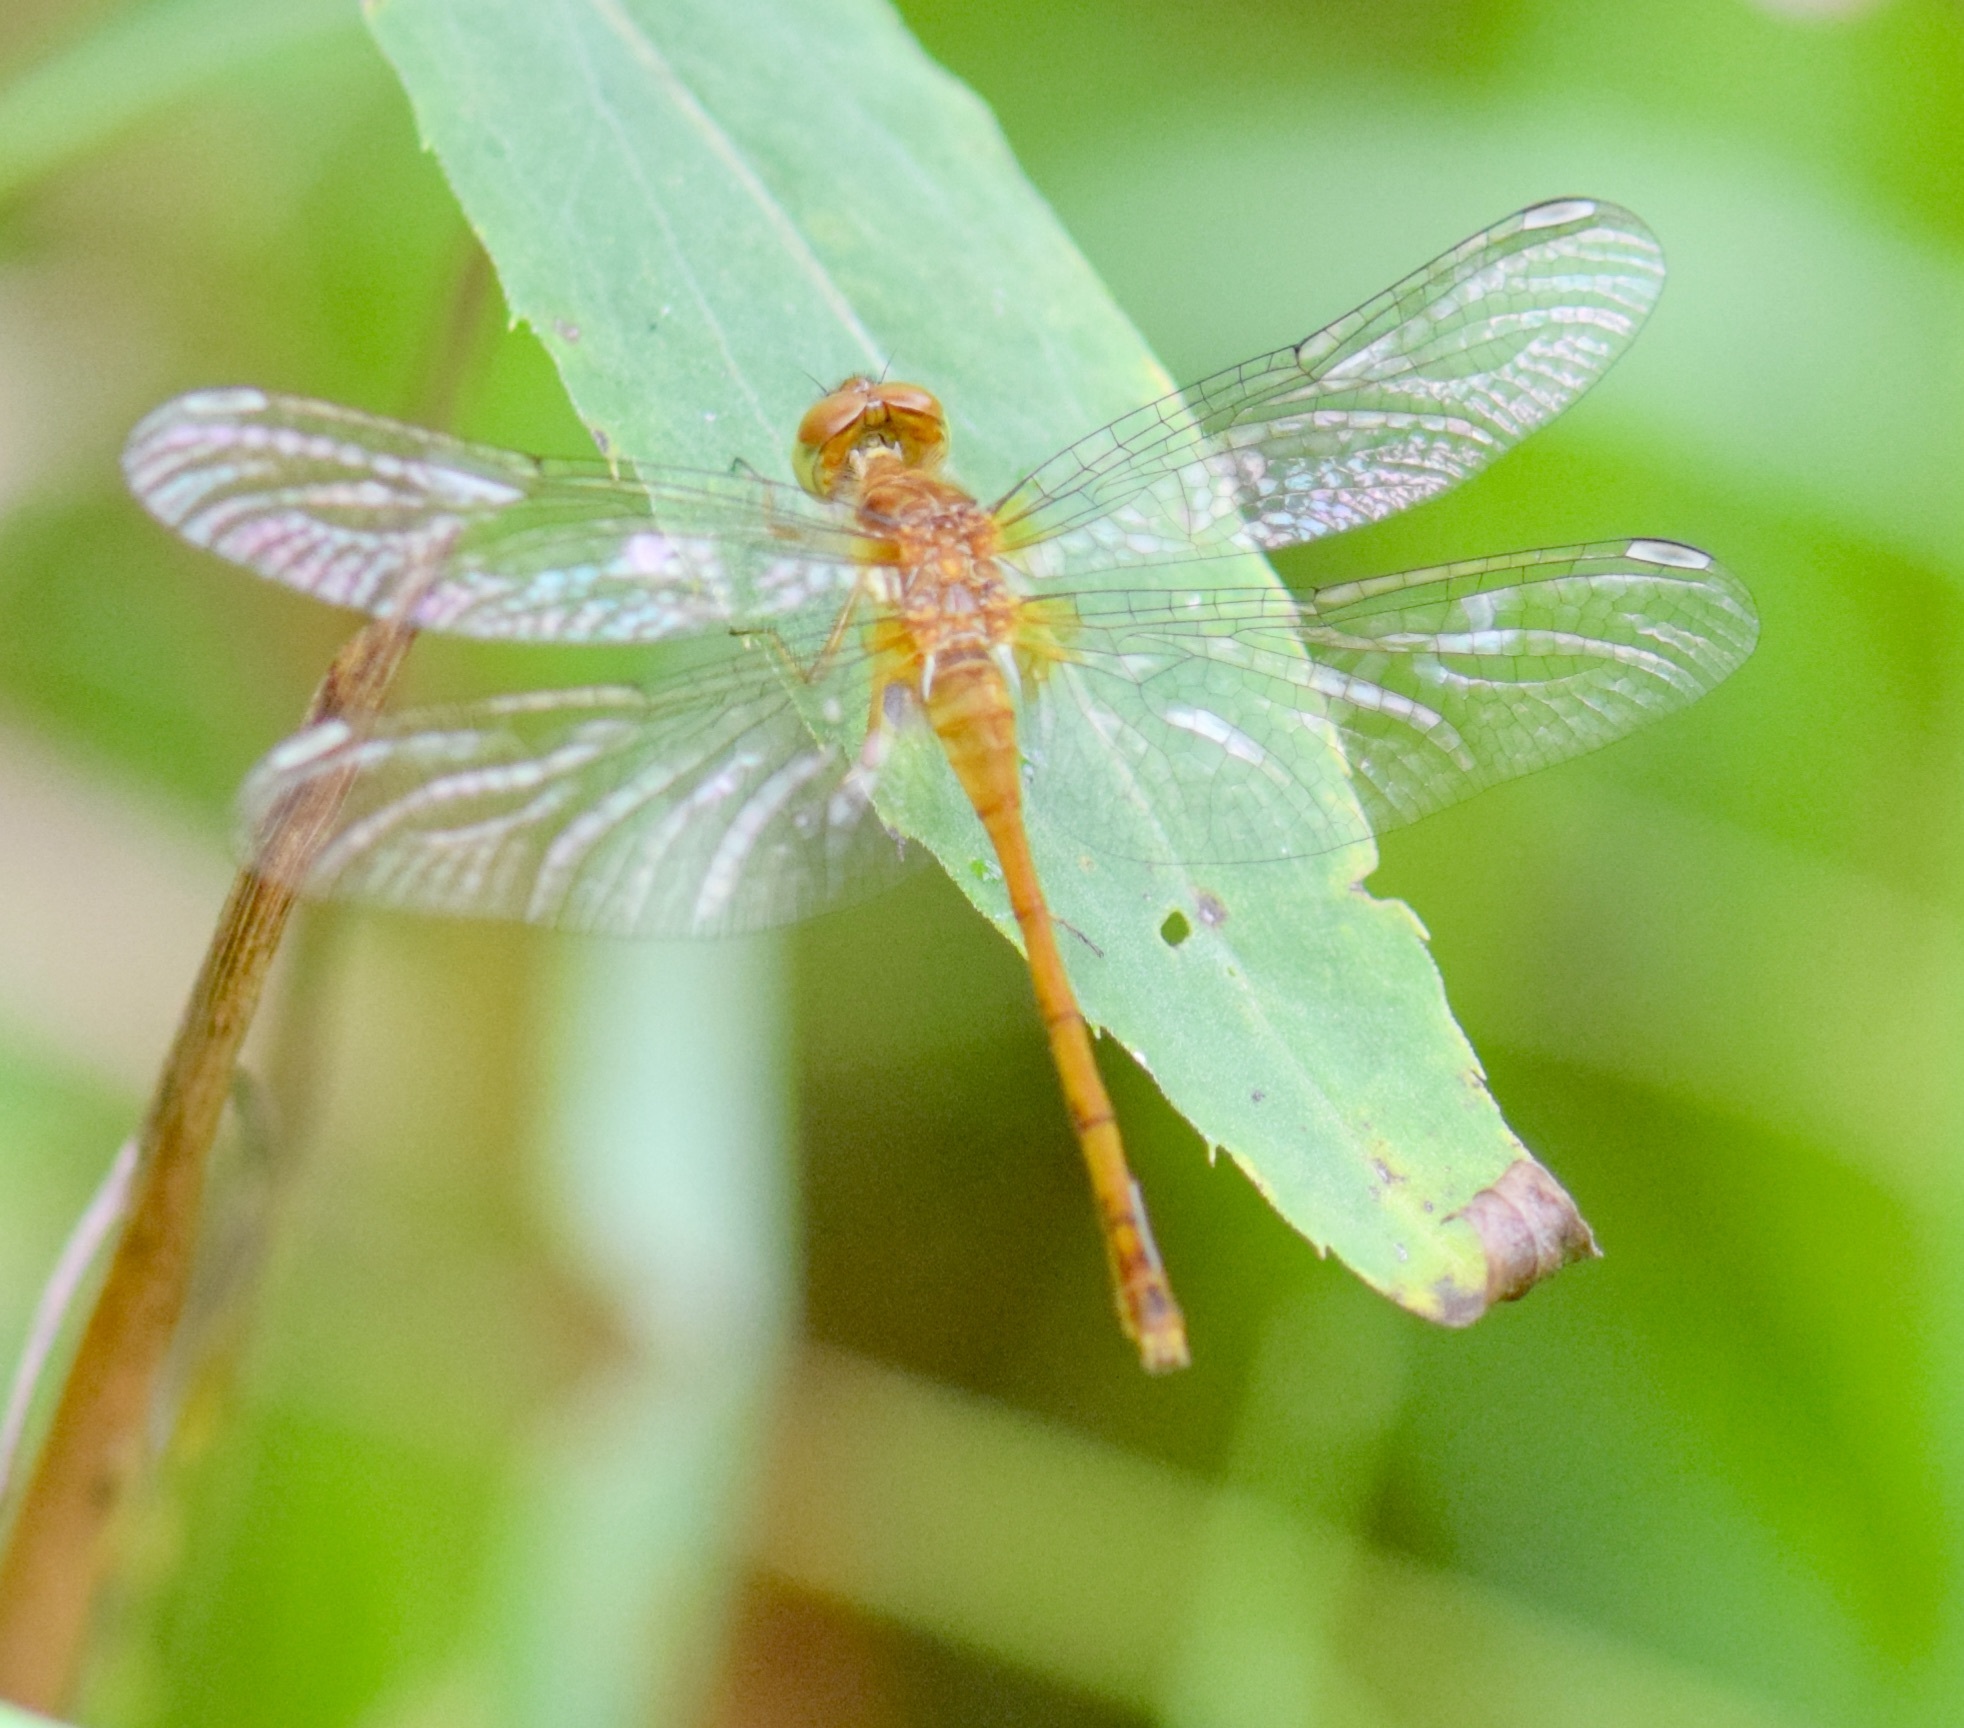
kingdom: Animalia
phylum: Arthropoda
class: Insecta
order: Odonata
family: Libellulidae
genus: Sympetrum
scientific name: Sympetrum vicinum
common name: Autumn meadowhawk
